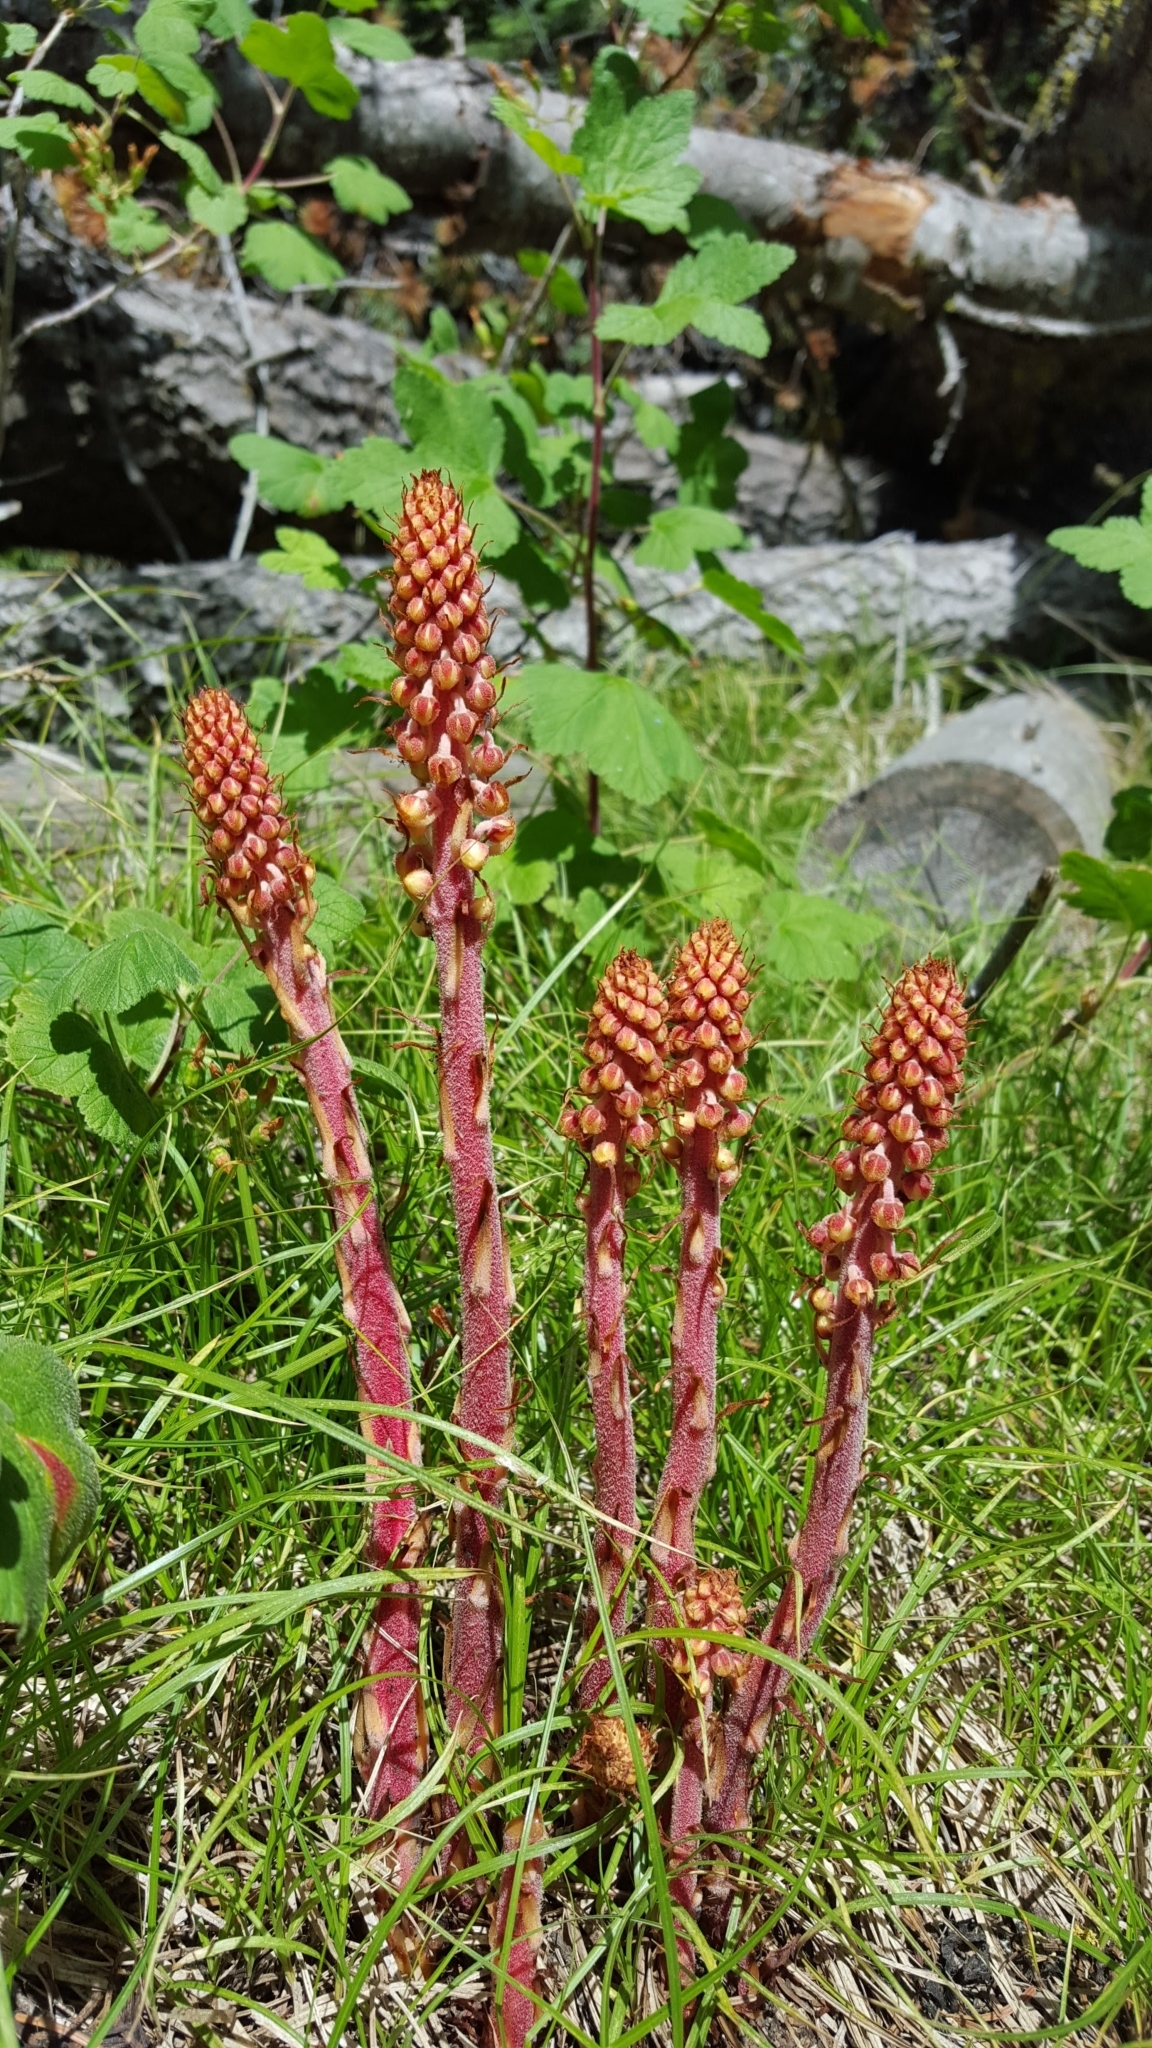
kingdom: Plantae
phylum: Tracheophyta
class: Magnoliopsida
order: Ericales
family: Ericaceae
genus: Pterospora
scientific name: Pterospora andromedea
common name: Giant bird's-nest
